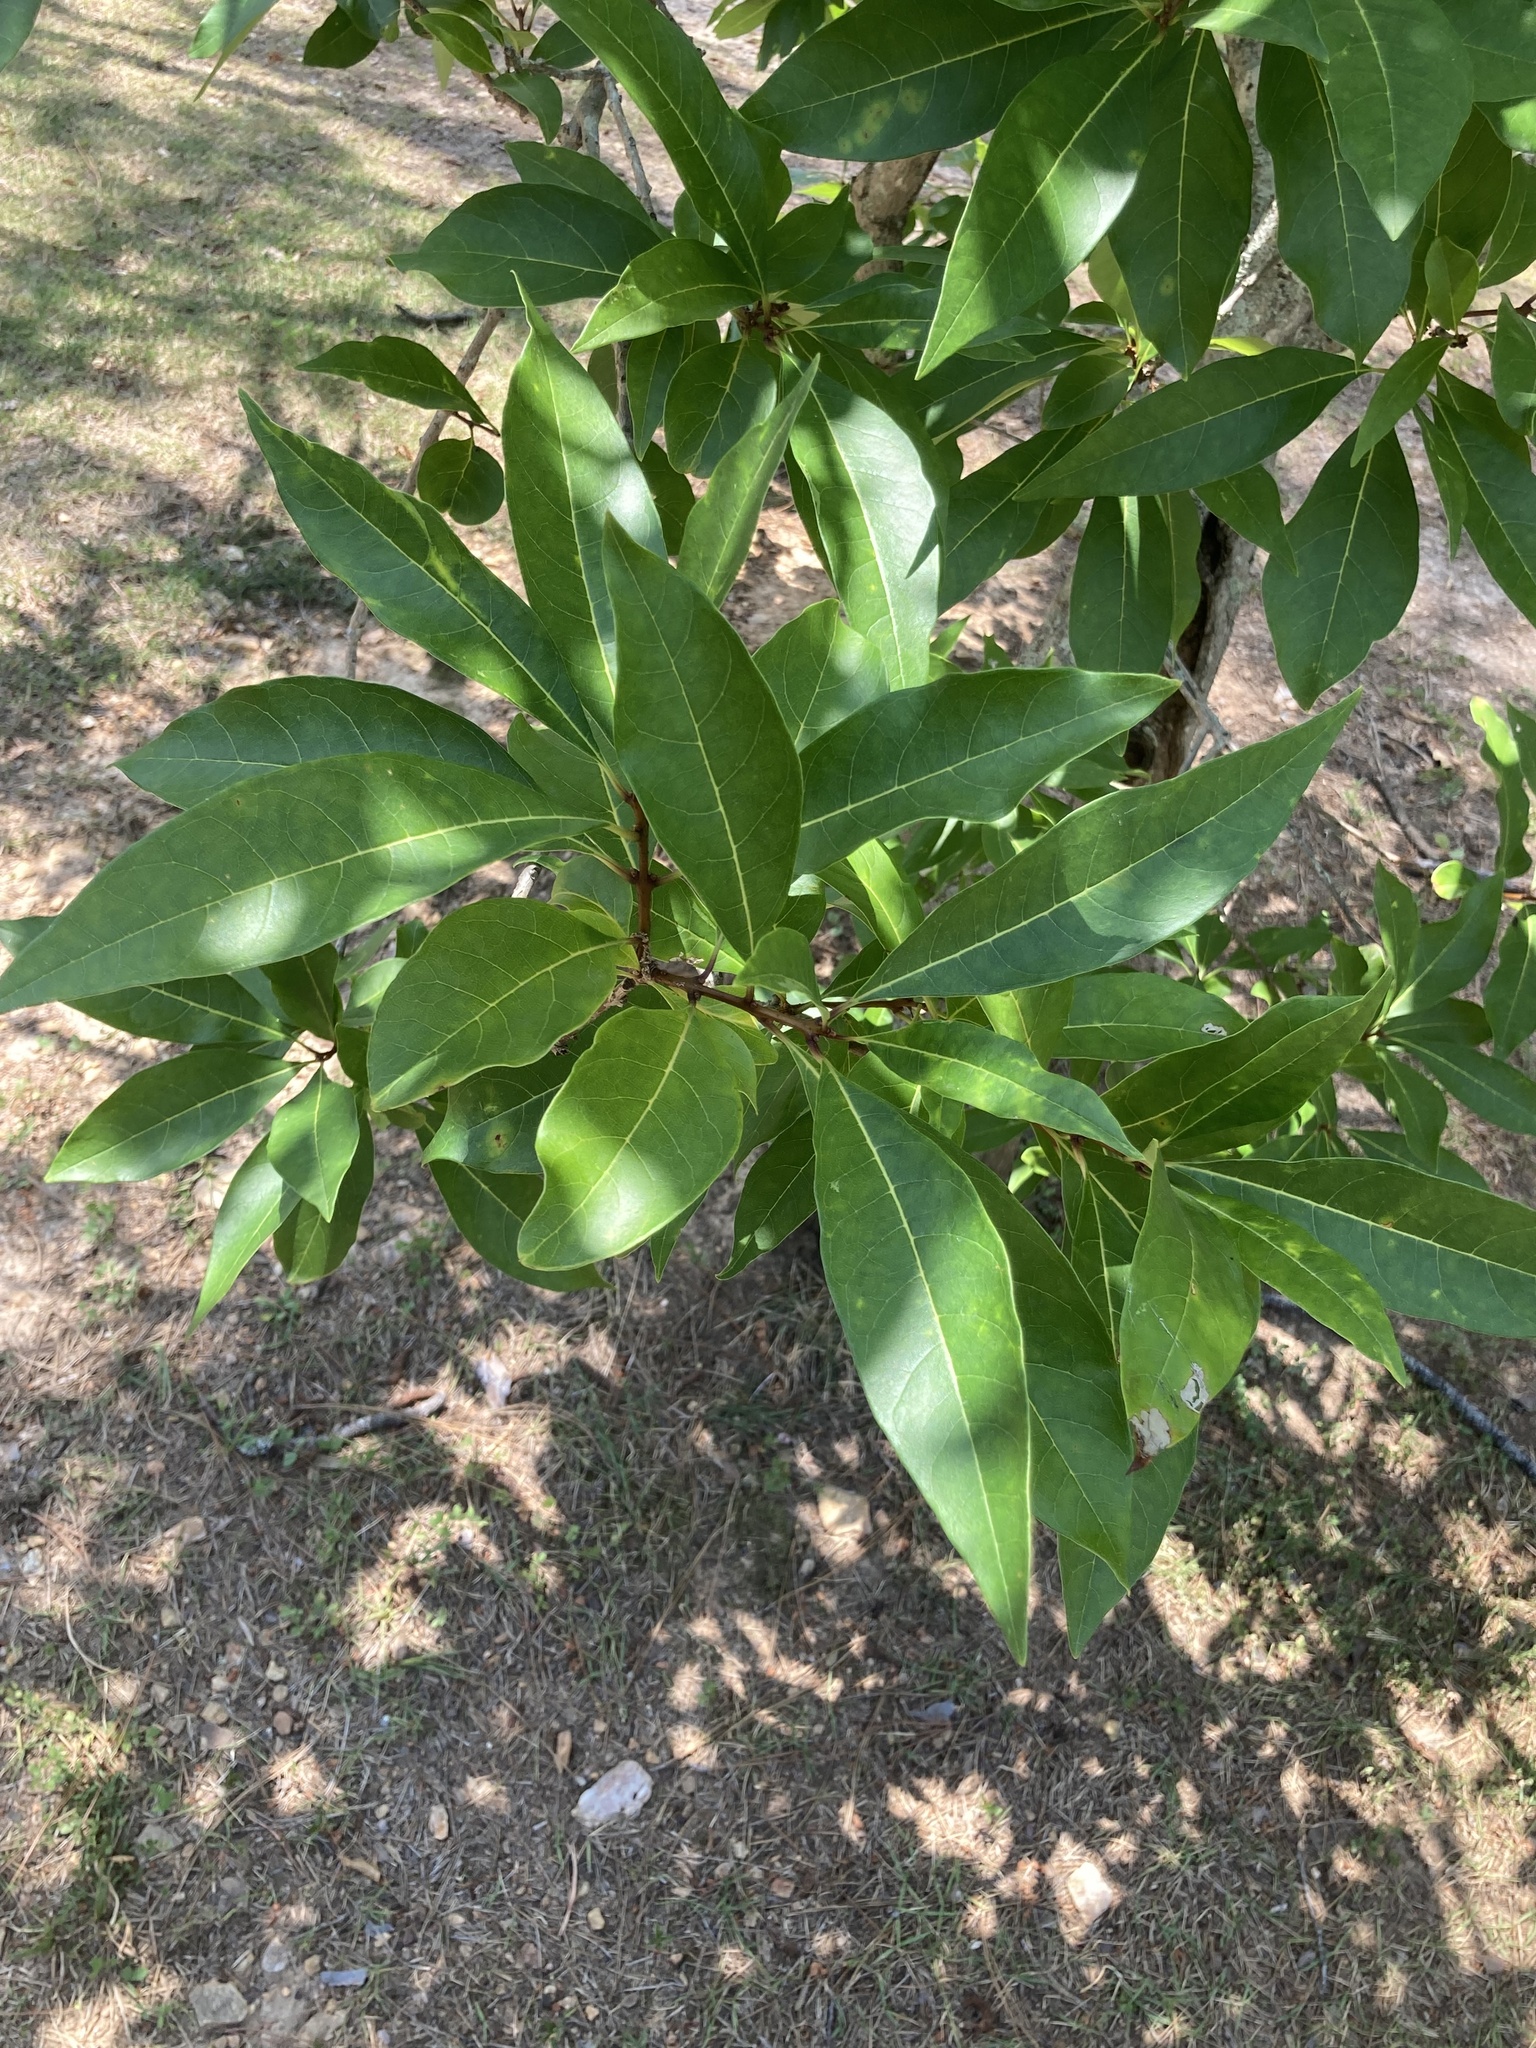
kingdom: Plantae
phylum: Tracheophyta
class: Magnoliopsida
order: Lamiales
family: Oleaceae
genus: Chionanthus
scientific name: Chionanthus virginicus
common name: American fringetree
